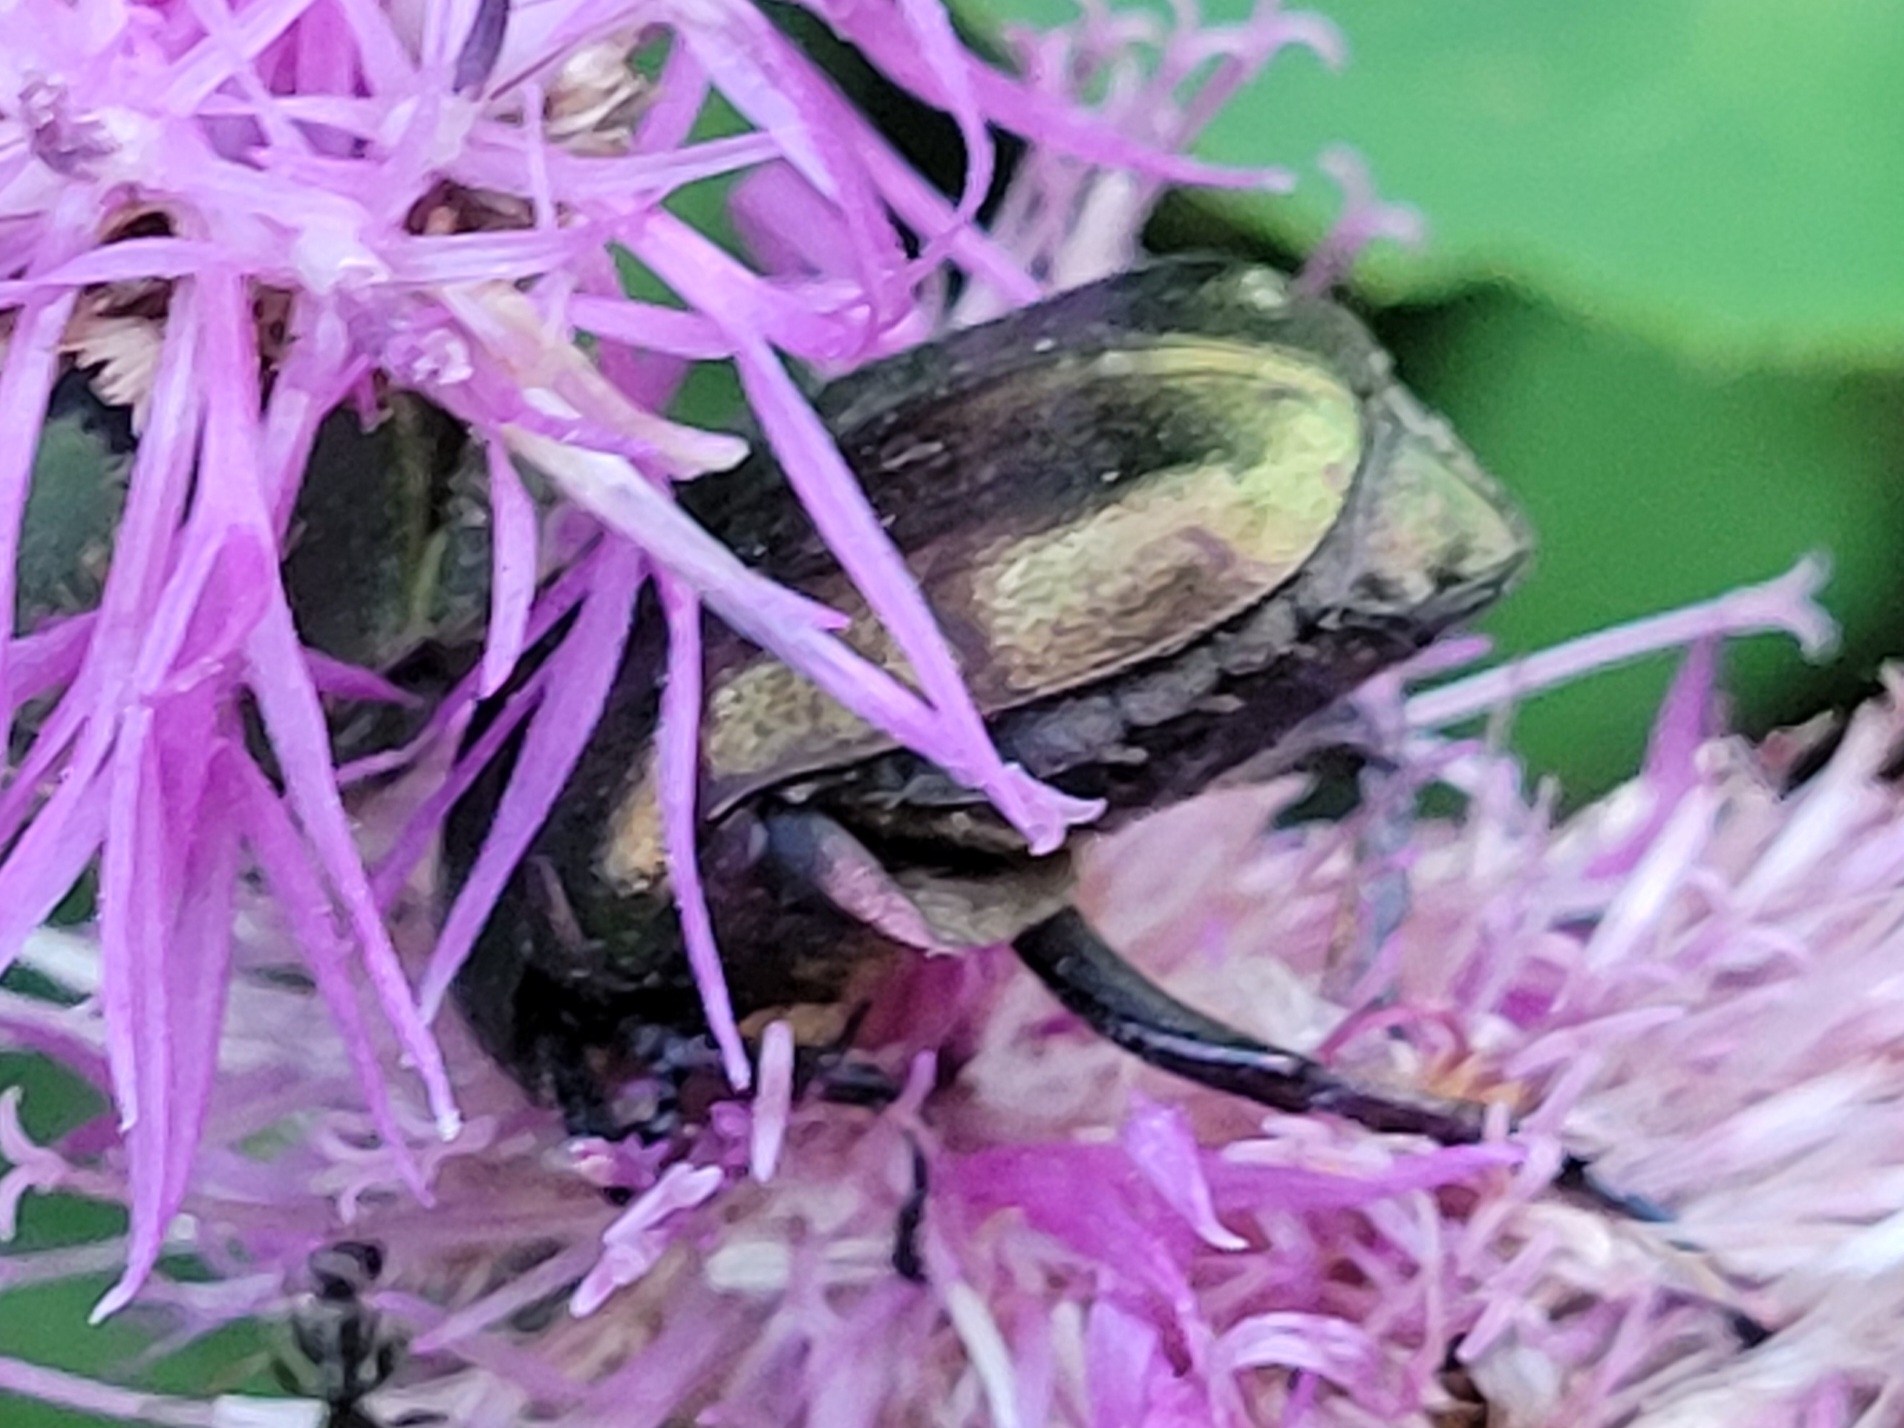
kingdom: Animalia
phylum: Arthropoda
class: Insecta
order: Coleoptera
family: Scarabaeidae
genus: Protaetia
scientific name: Protaetia cuprea
